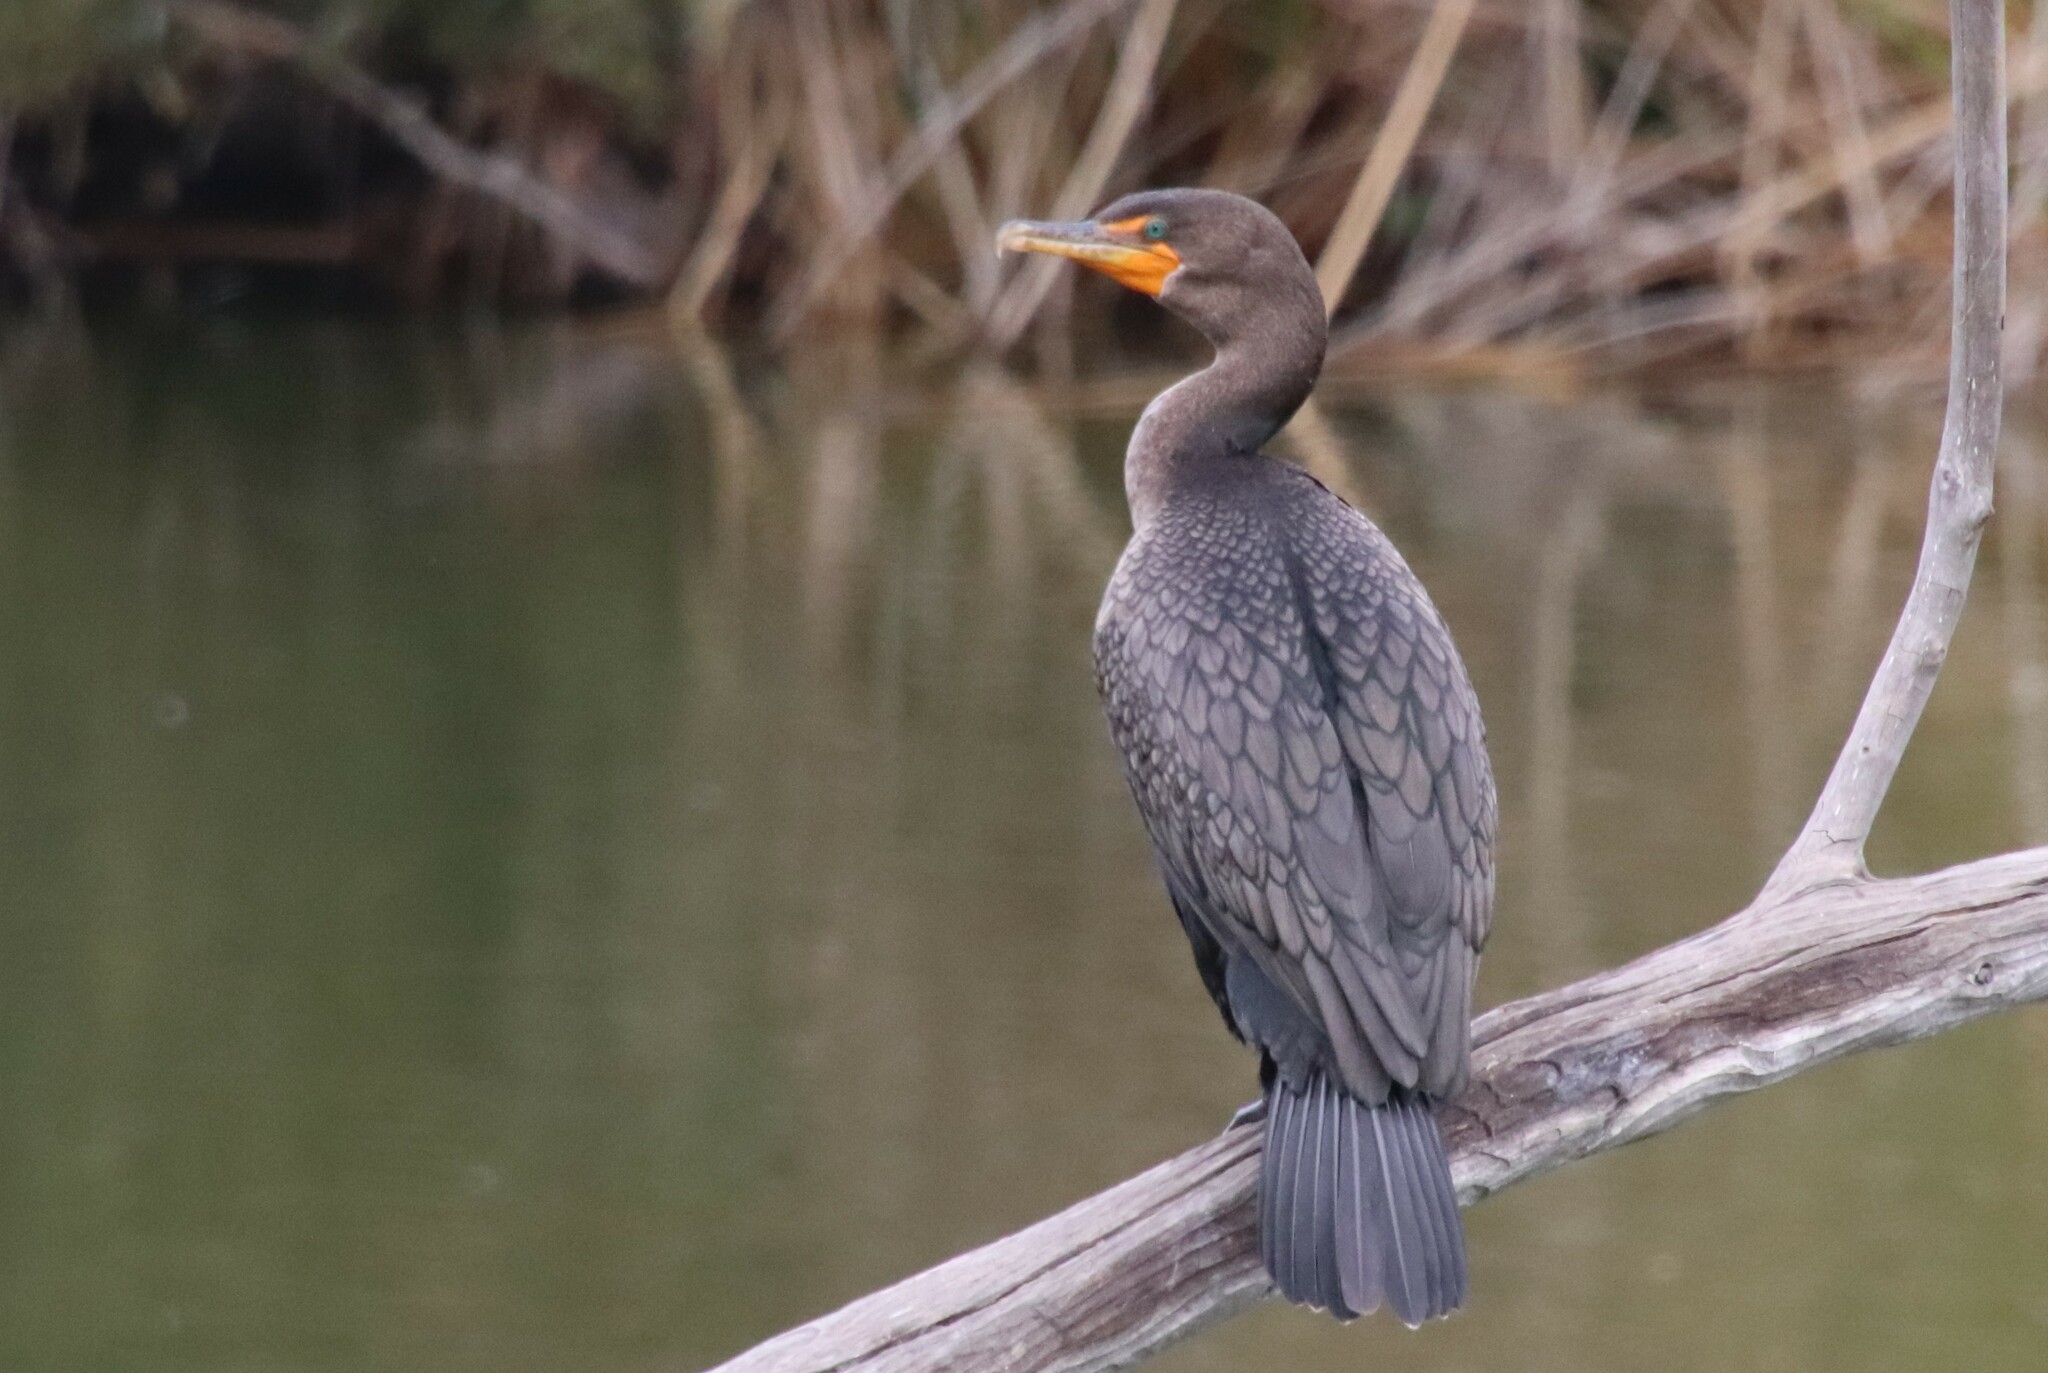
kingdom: Animalia
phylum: Chordata
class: Aves
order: Suliformes
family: Phalacrocoracidae
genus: Phalacrocorax
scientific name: Phalacrocorax auritus
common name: Double-crested cormorant
